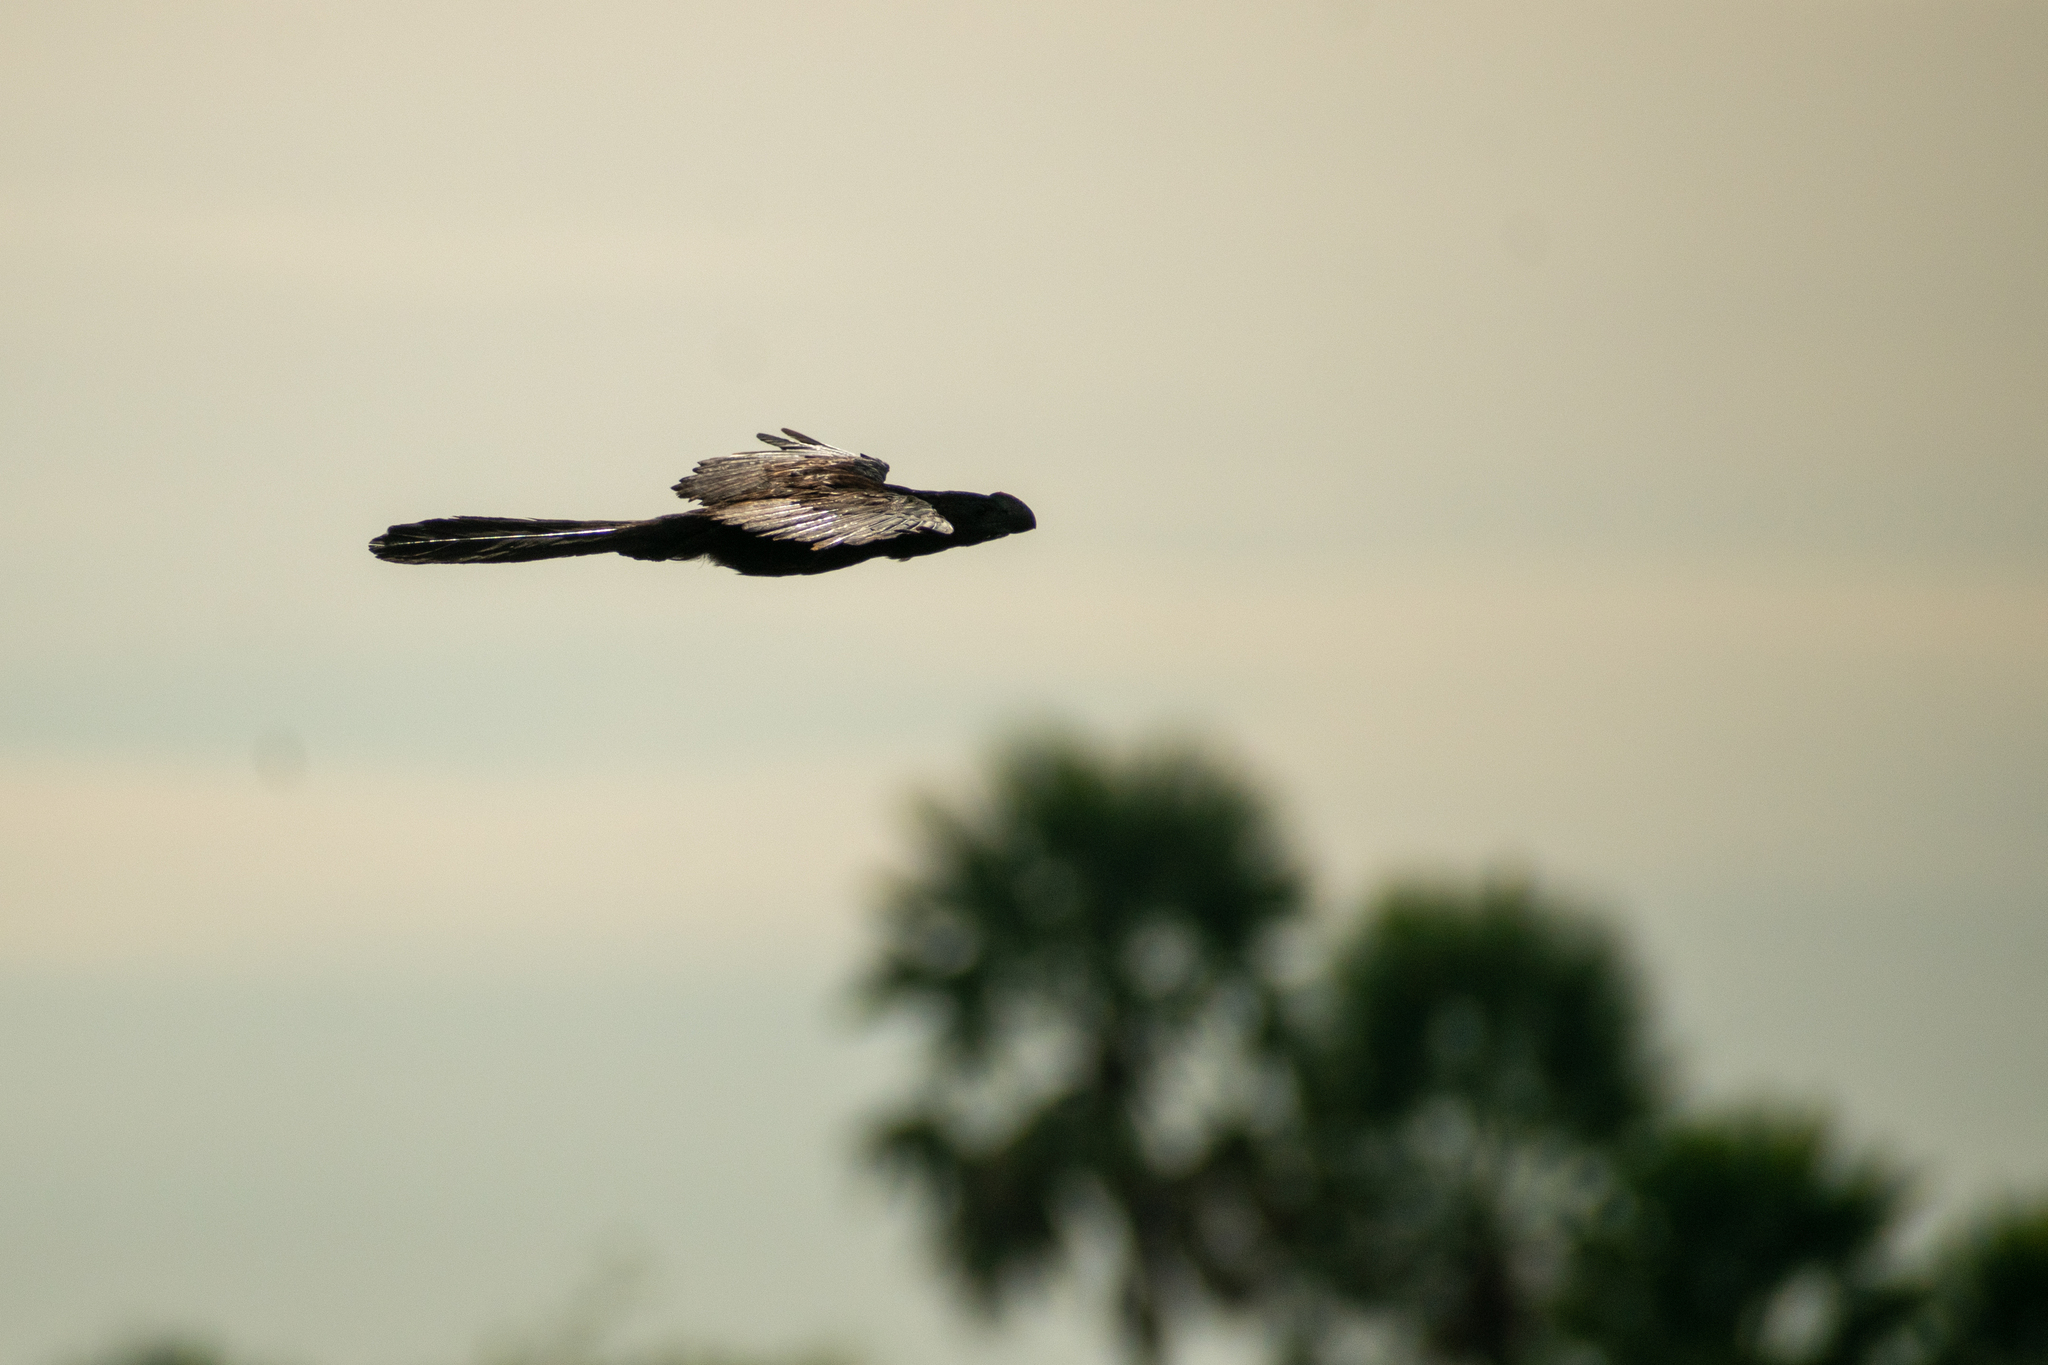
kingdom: Animalia
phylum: Chordata
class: Aves
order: Cuculiformes
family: Cuculidae
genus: Crotophaga
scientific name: Crotophaga ani
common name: Smooth-billed ani
